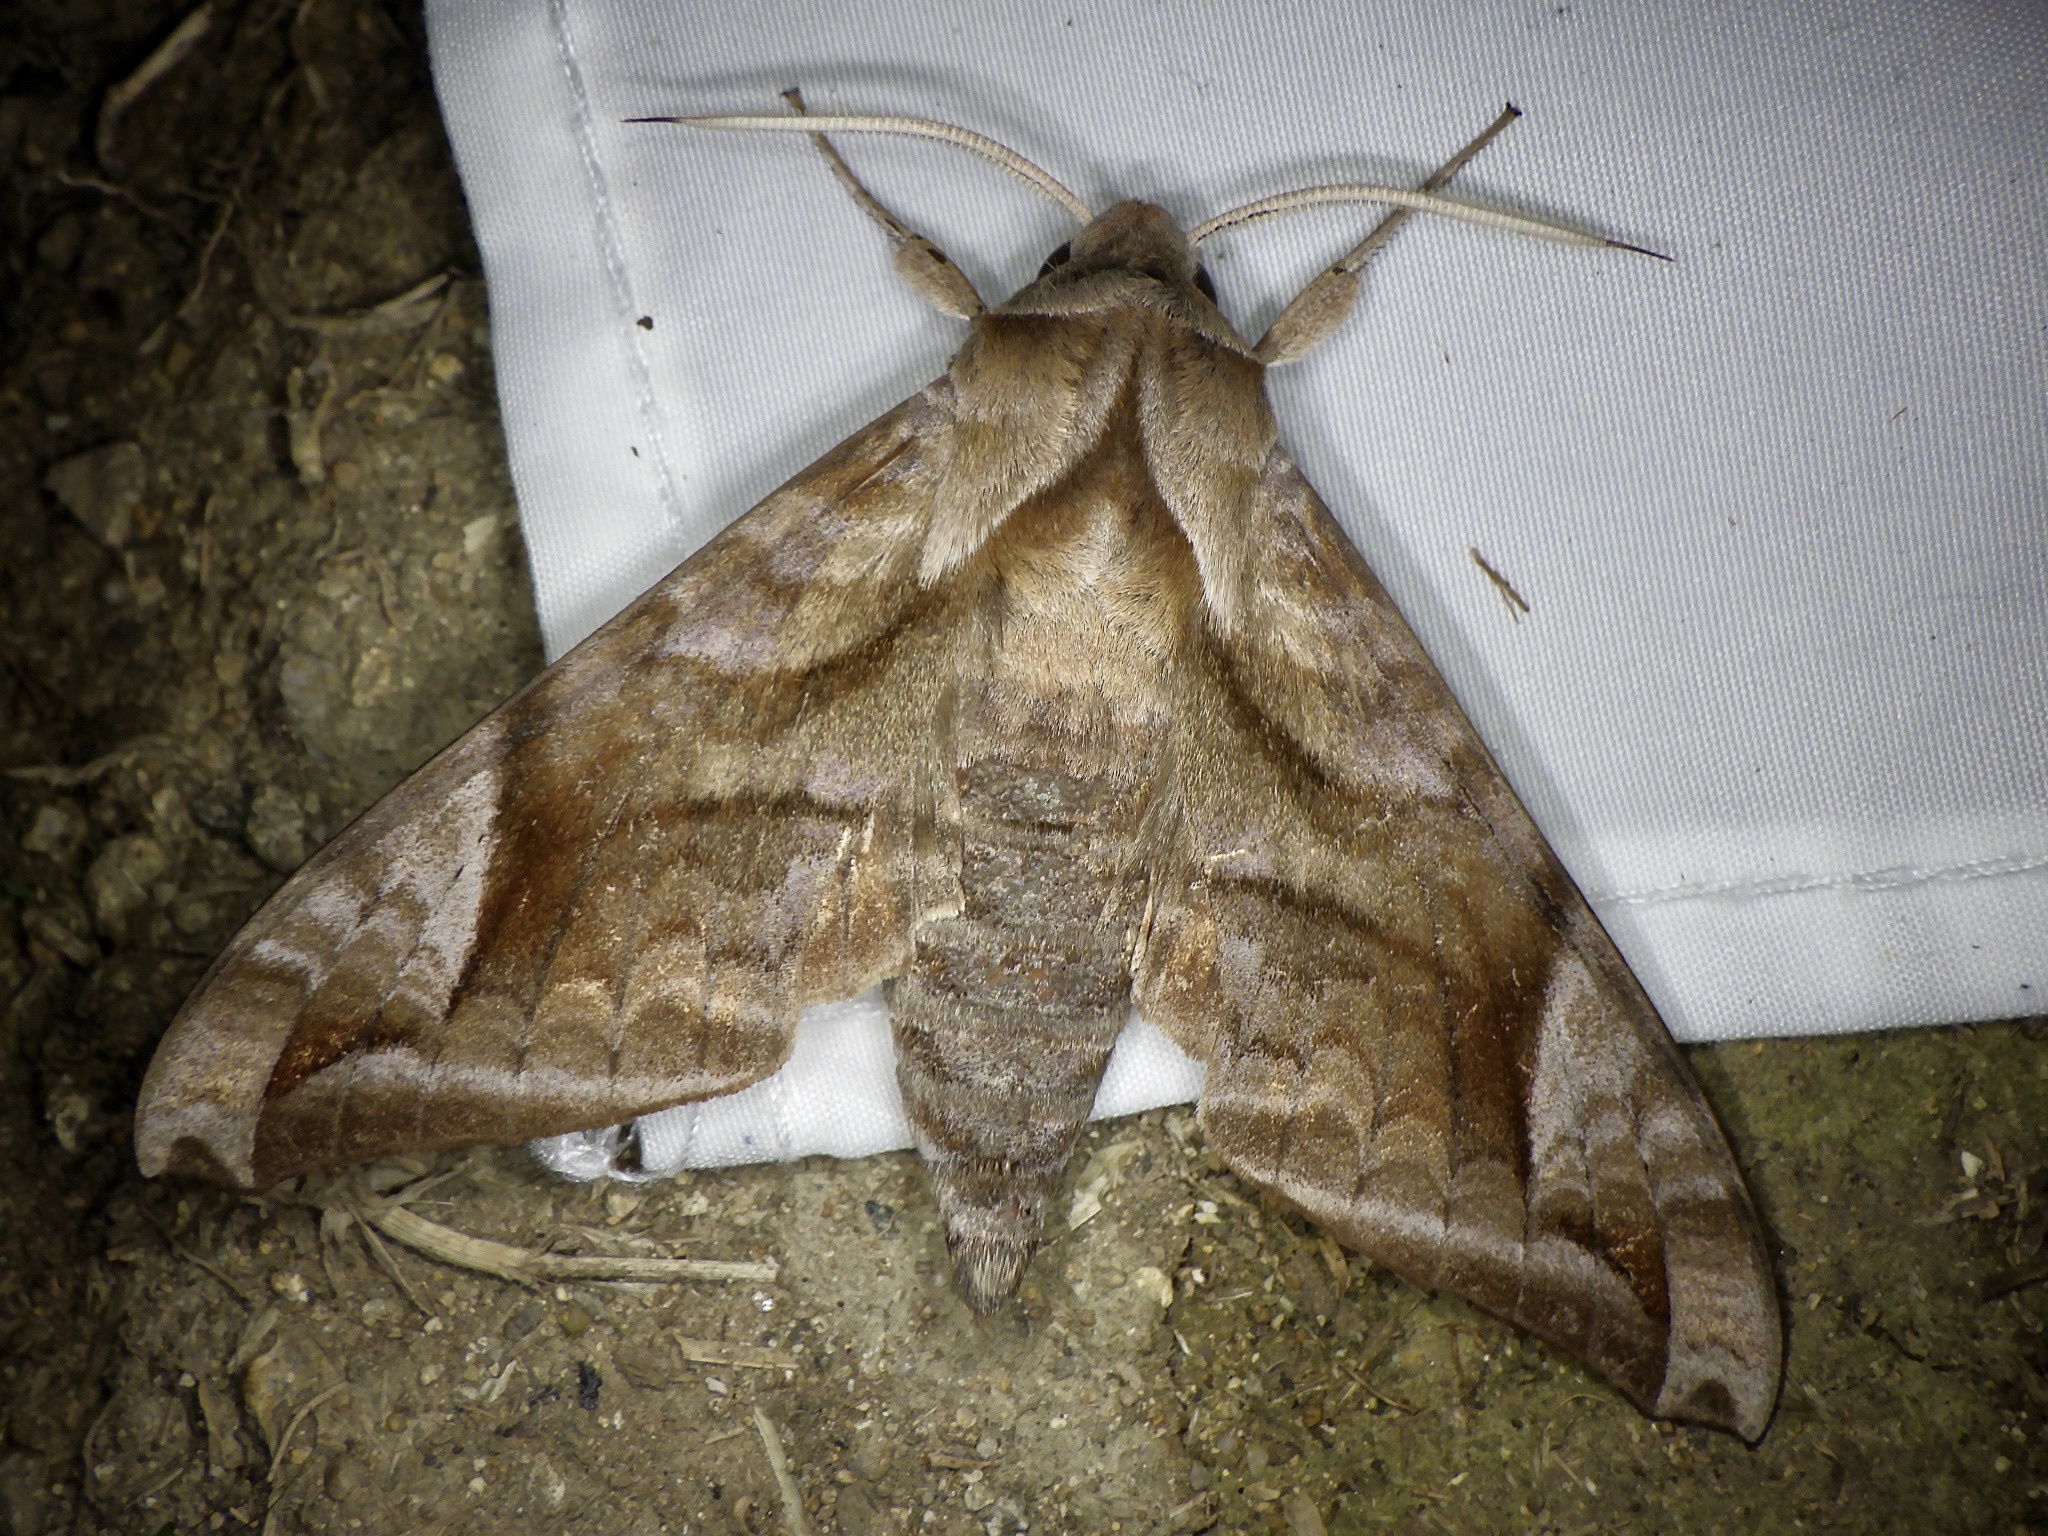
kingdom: Animalia
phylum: Arthropoda
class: Insecta
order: Lepidoptera
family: Sphingidae
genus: Acosmeryx
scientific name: Acosmeryx naga
